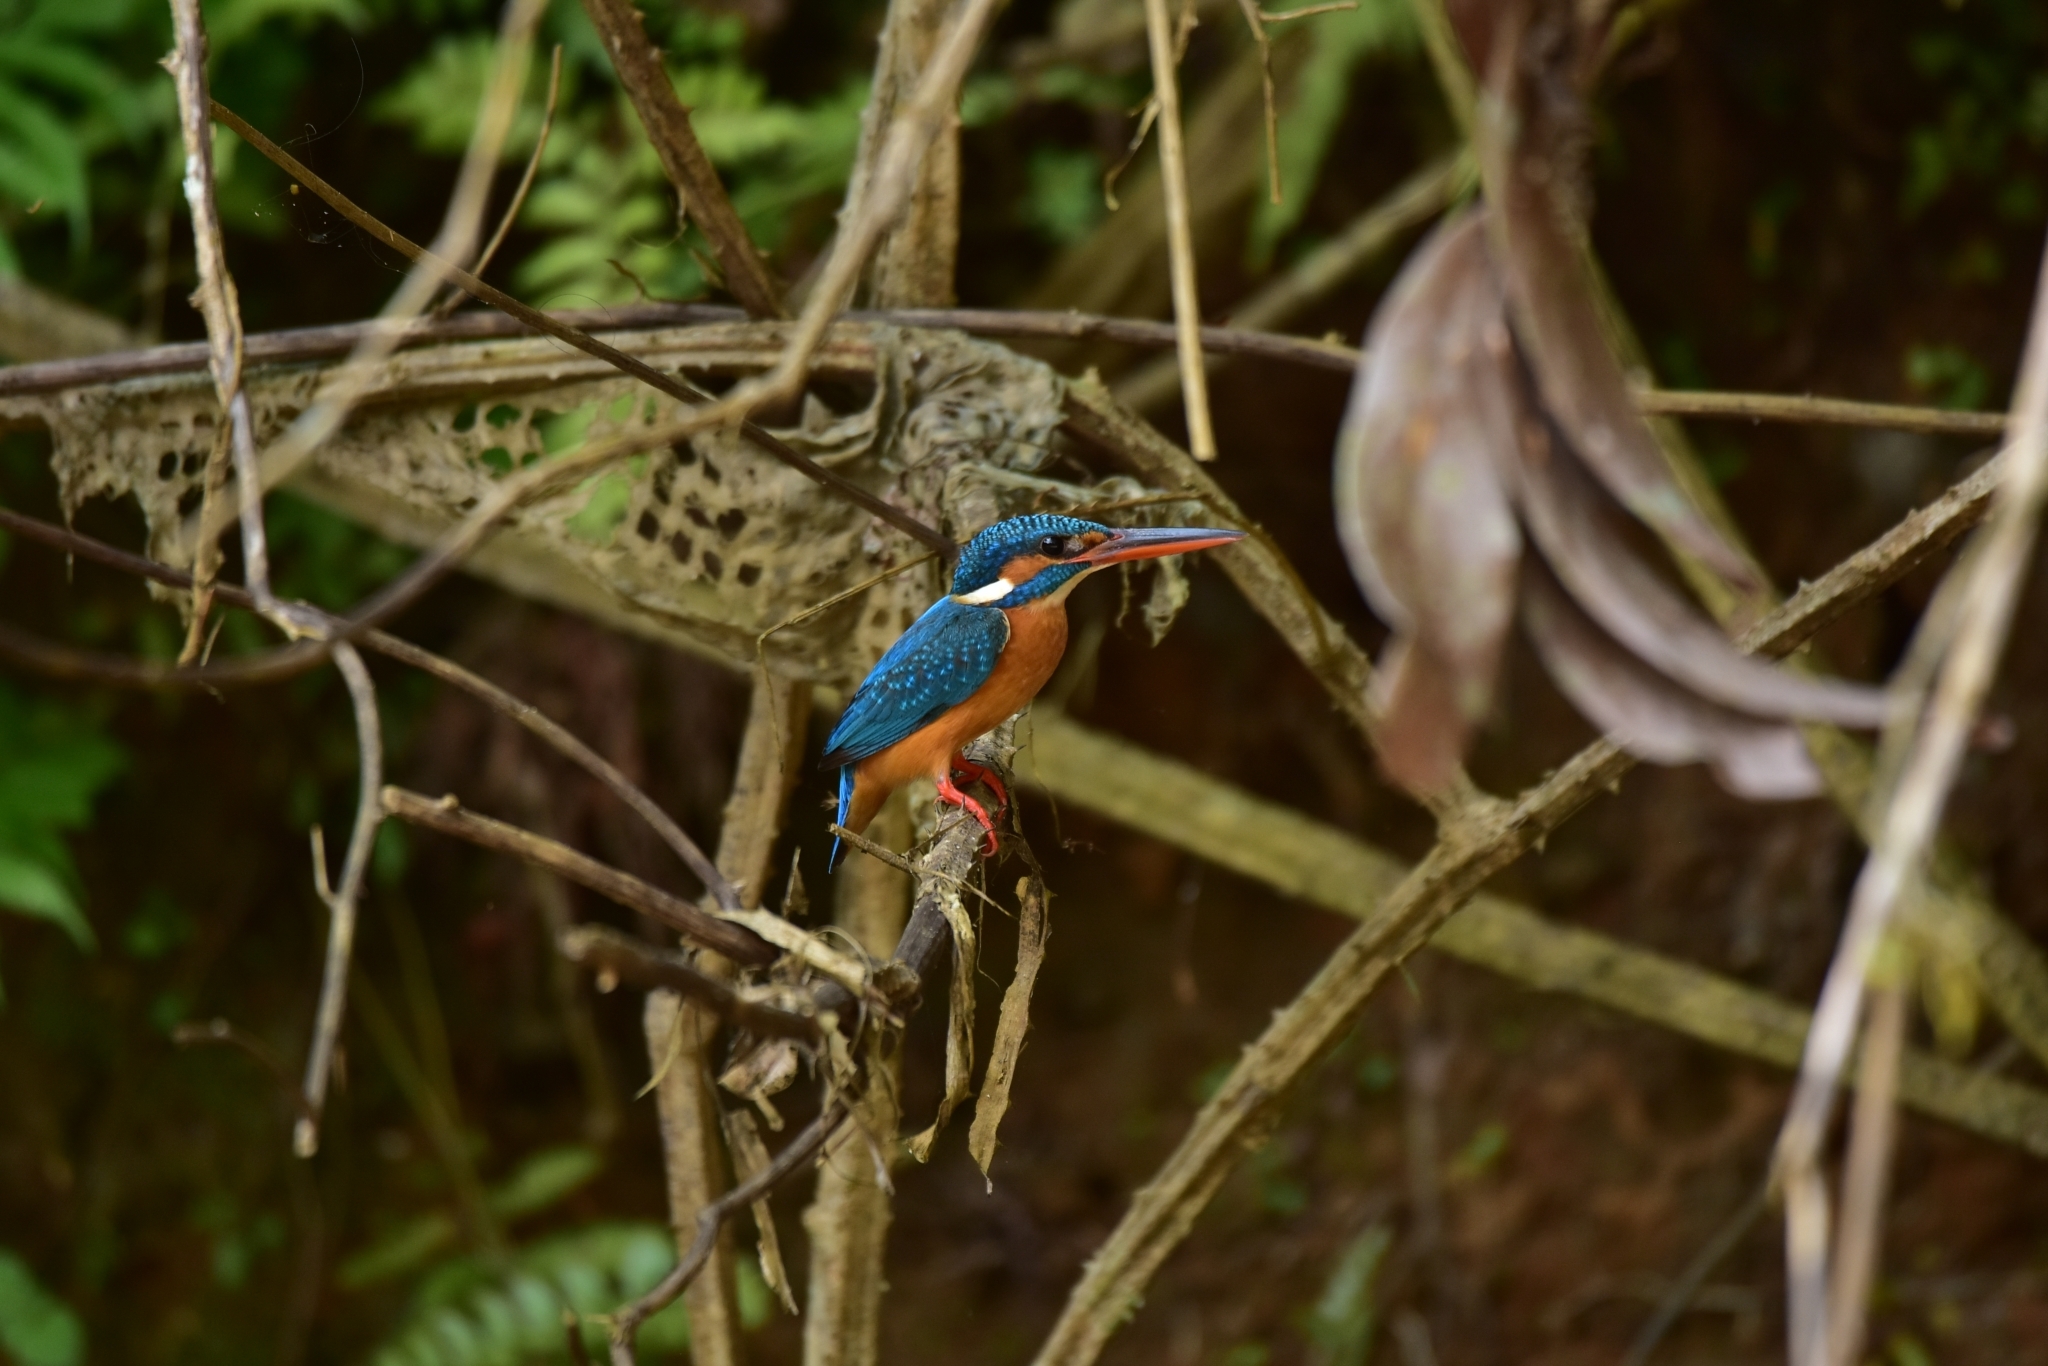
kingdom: Animalia
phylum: Chordata
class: Aves
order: Coraciiformes
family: Alcedinidae
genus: Alcedo
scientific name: Alcedo atthis
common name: Common kingfisher
